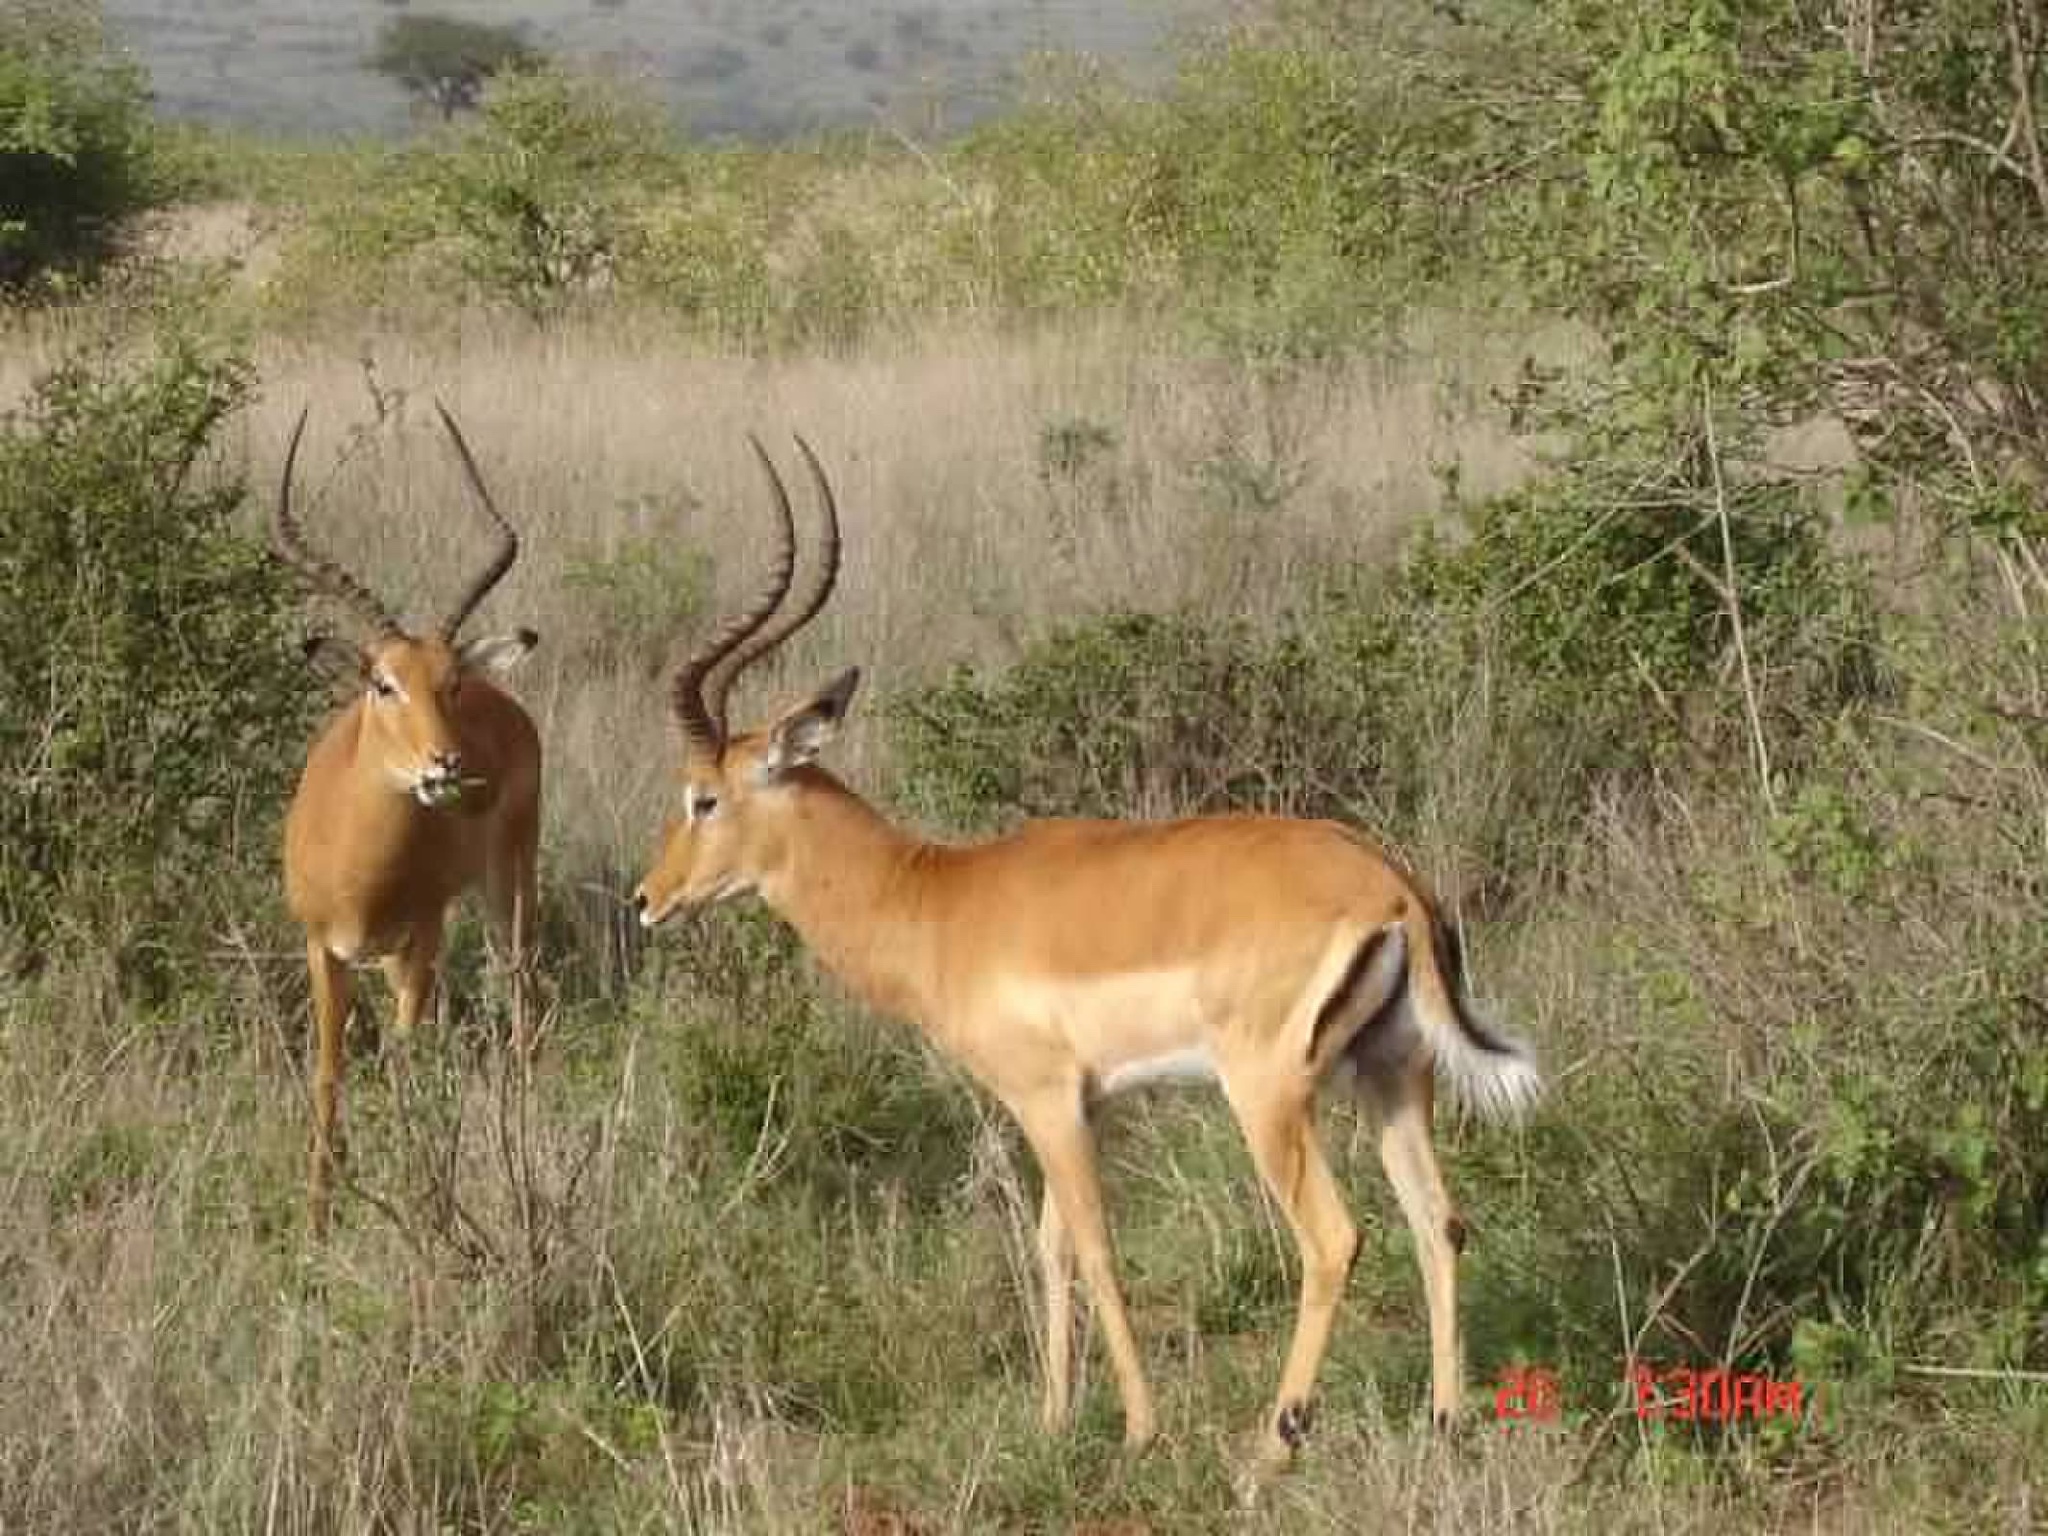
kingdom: Animalia
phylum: Chordata
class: Mammalia
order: Artiodactyla
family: Bovidae
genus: Aepyceros
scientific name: Aepyceros melampus
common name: Impala
